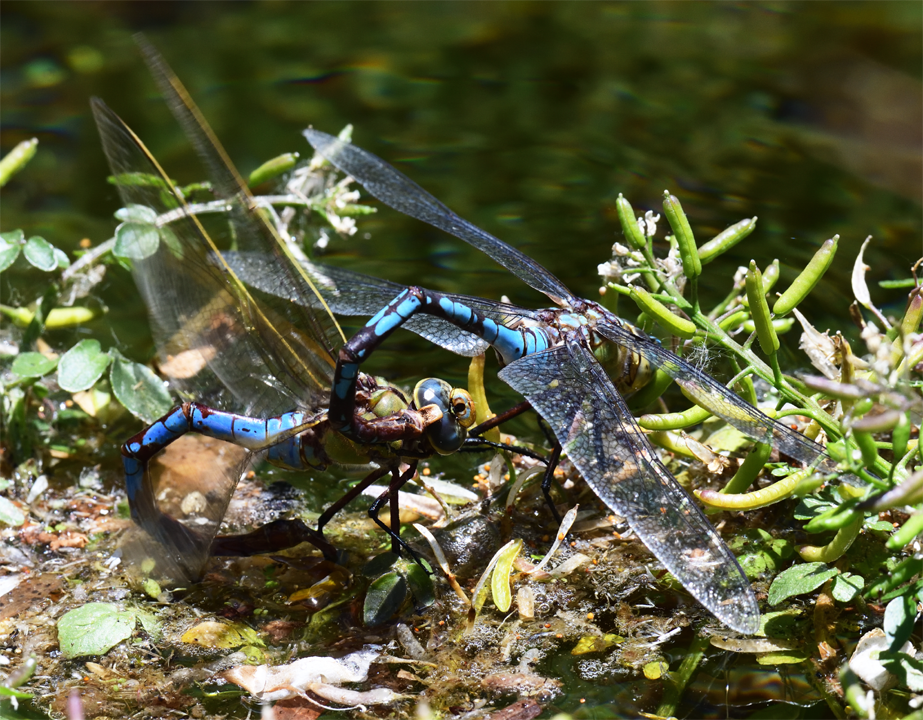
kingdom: Animalia
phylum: Arthropoda
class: Insecta
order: Odonata
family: Aeshnidae
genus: Anax
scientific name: Anax walsinghami
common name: Giant darner
